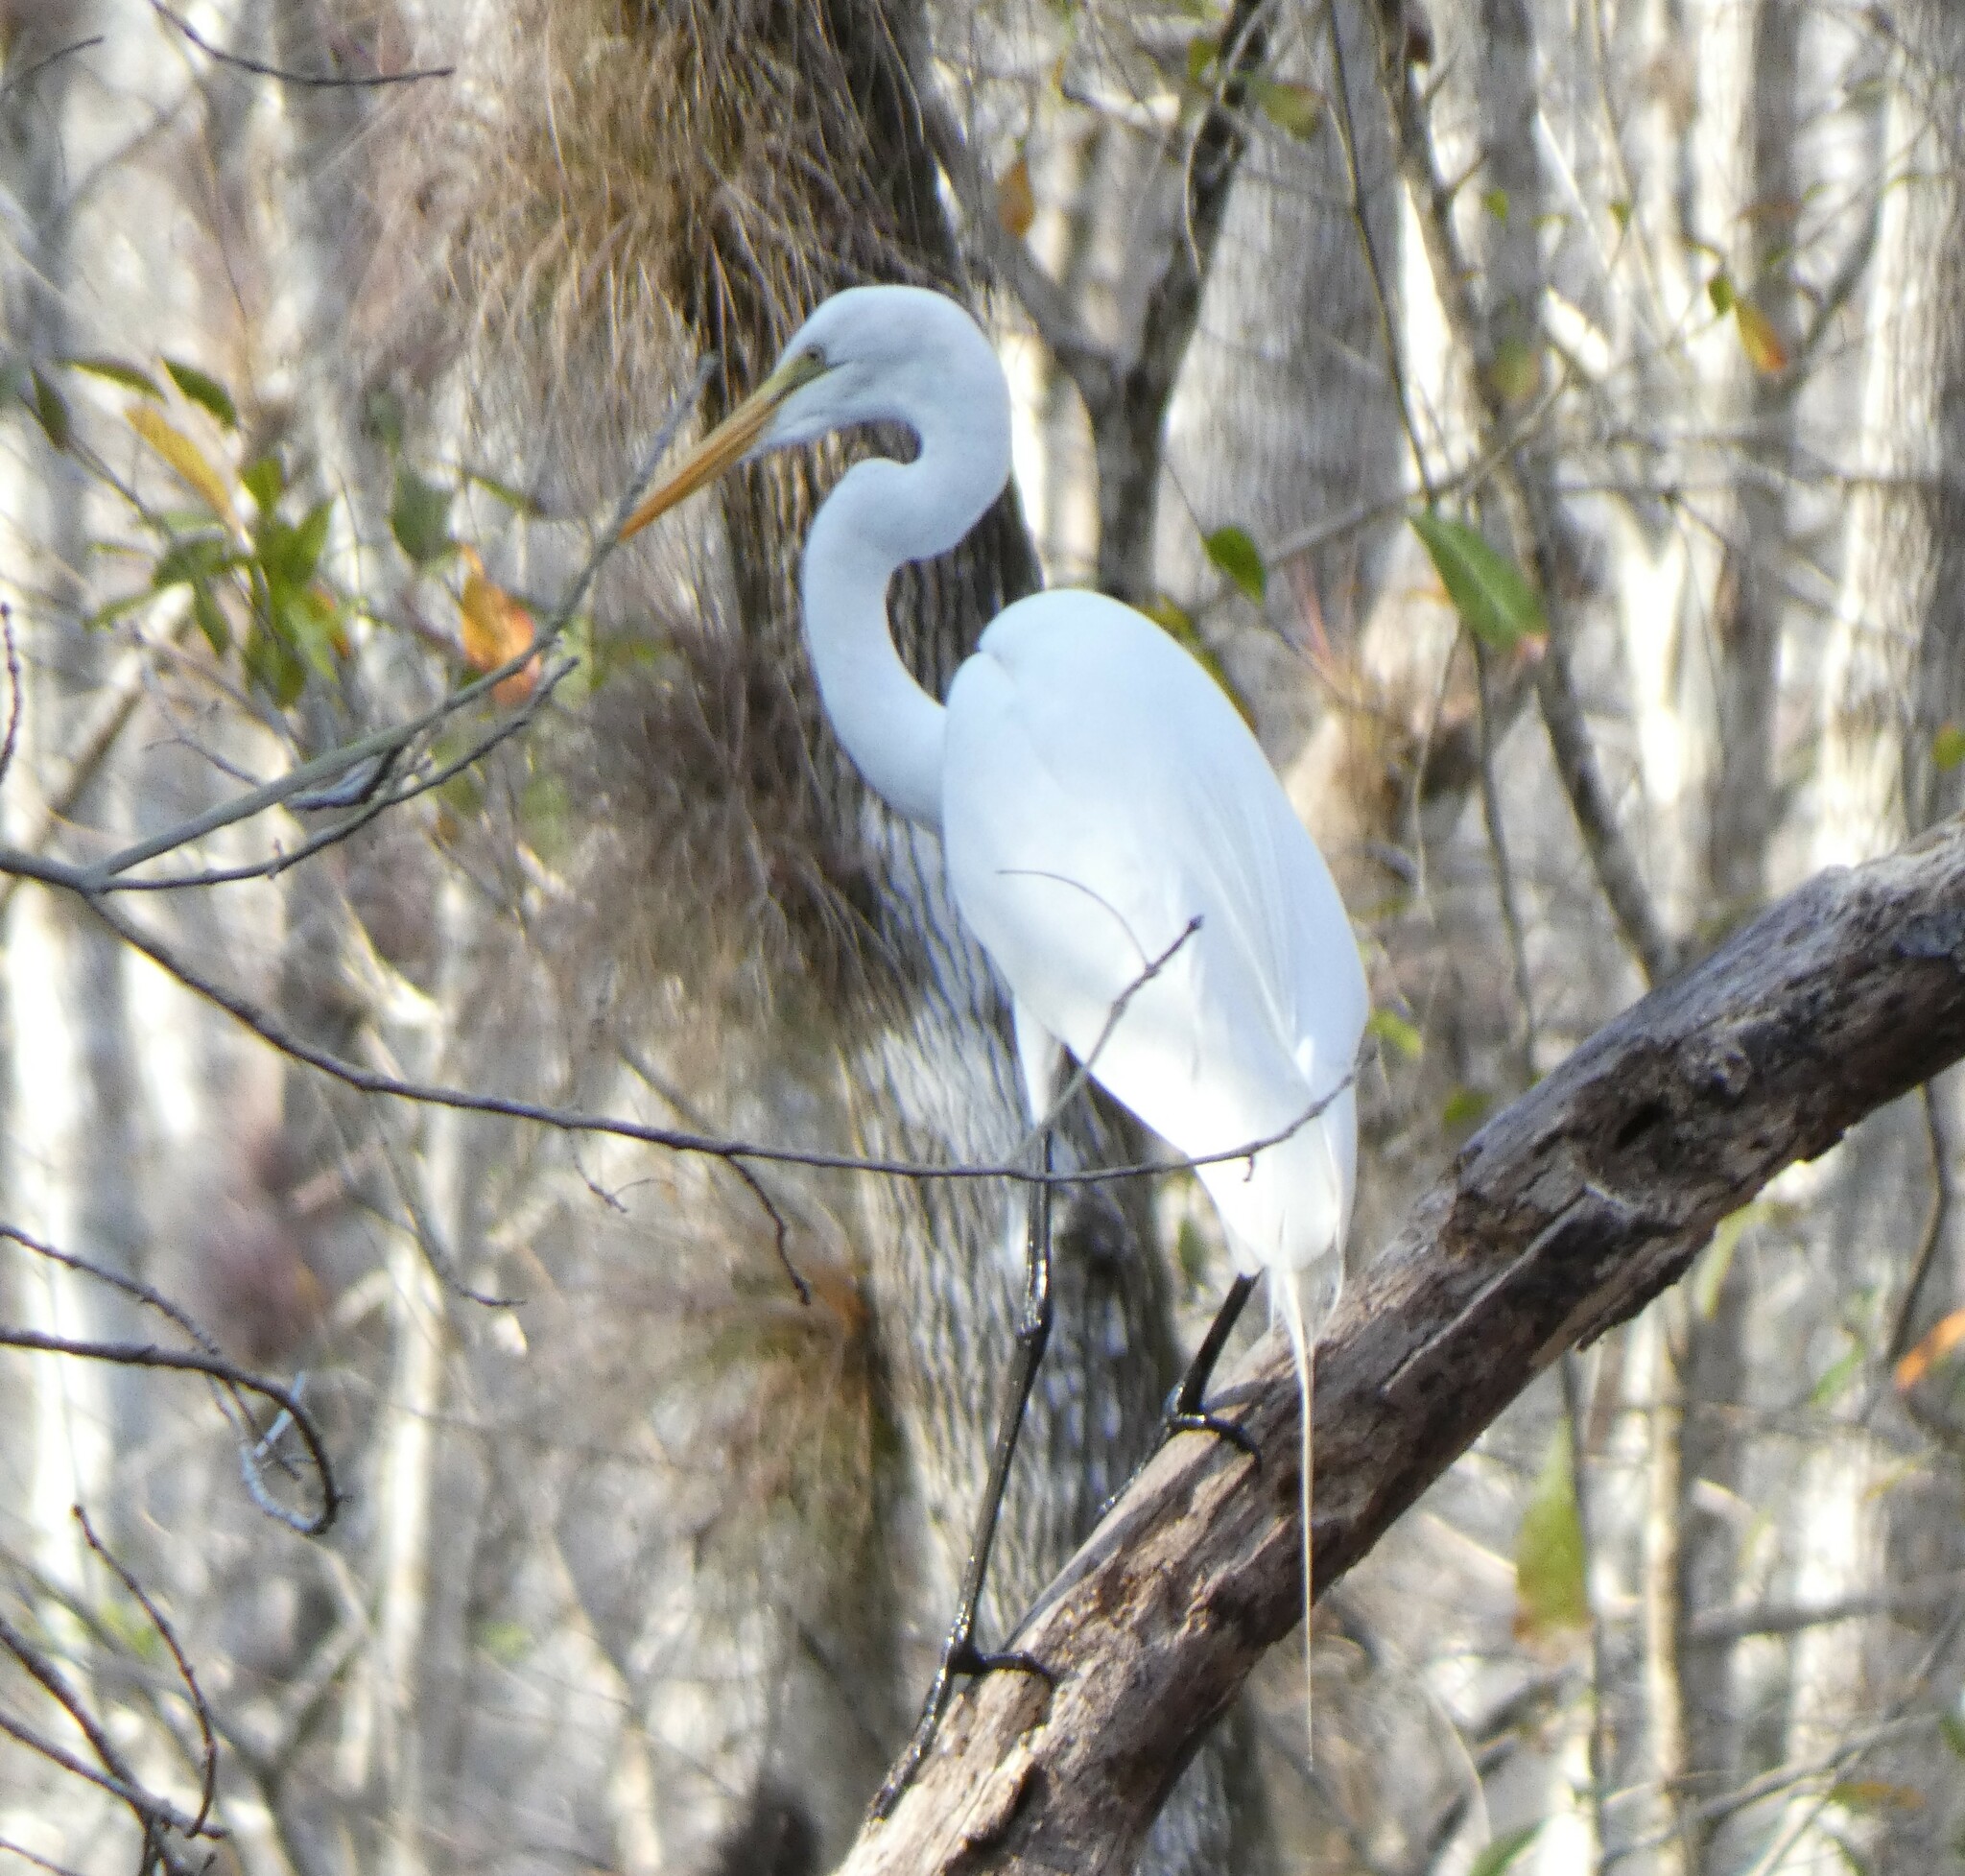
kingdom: Animalia
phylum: Chordata
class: Aves
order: Pelecaniformes
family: Ardeidae
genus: Ardea
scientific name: Ardea alba
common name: Great egret
